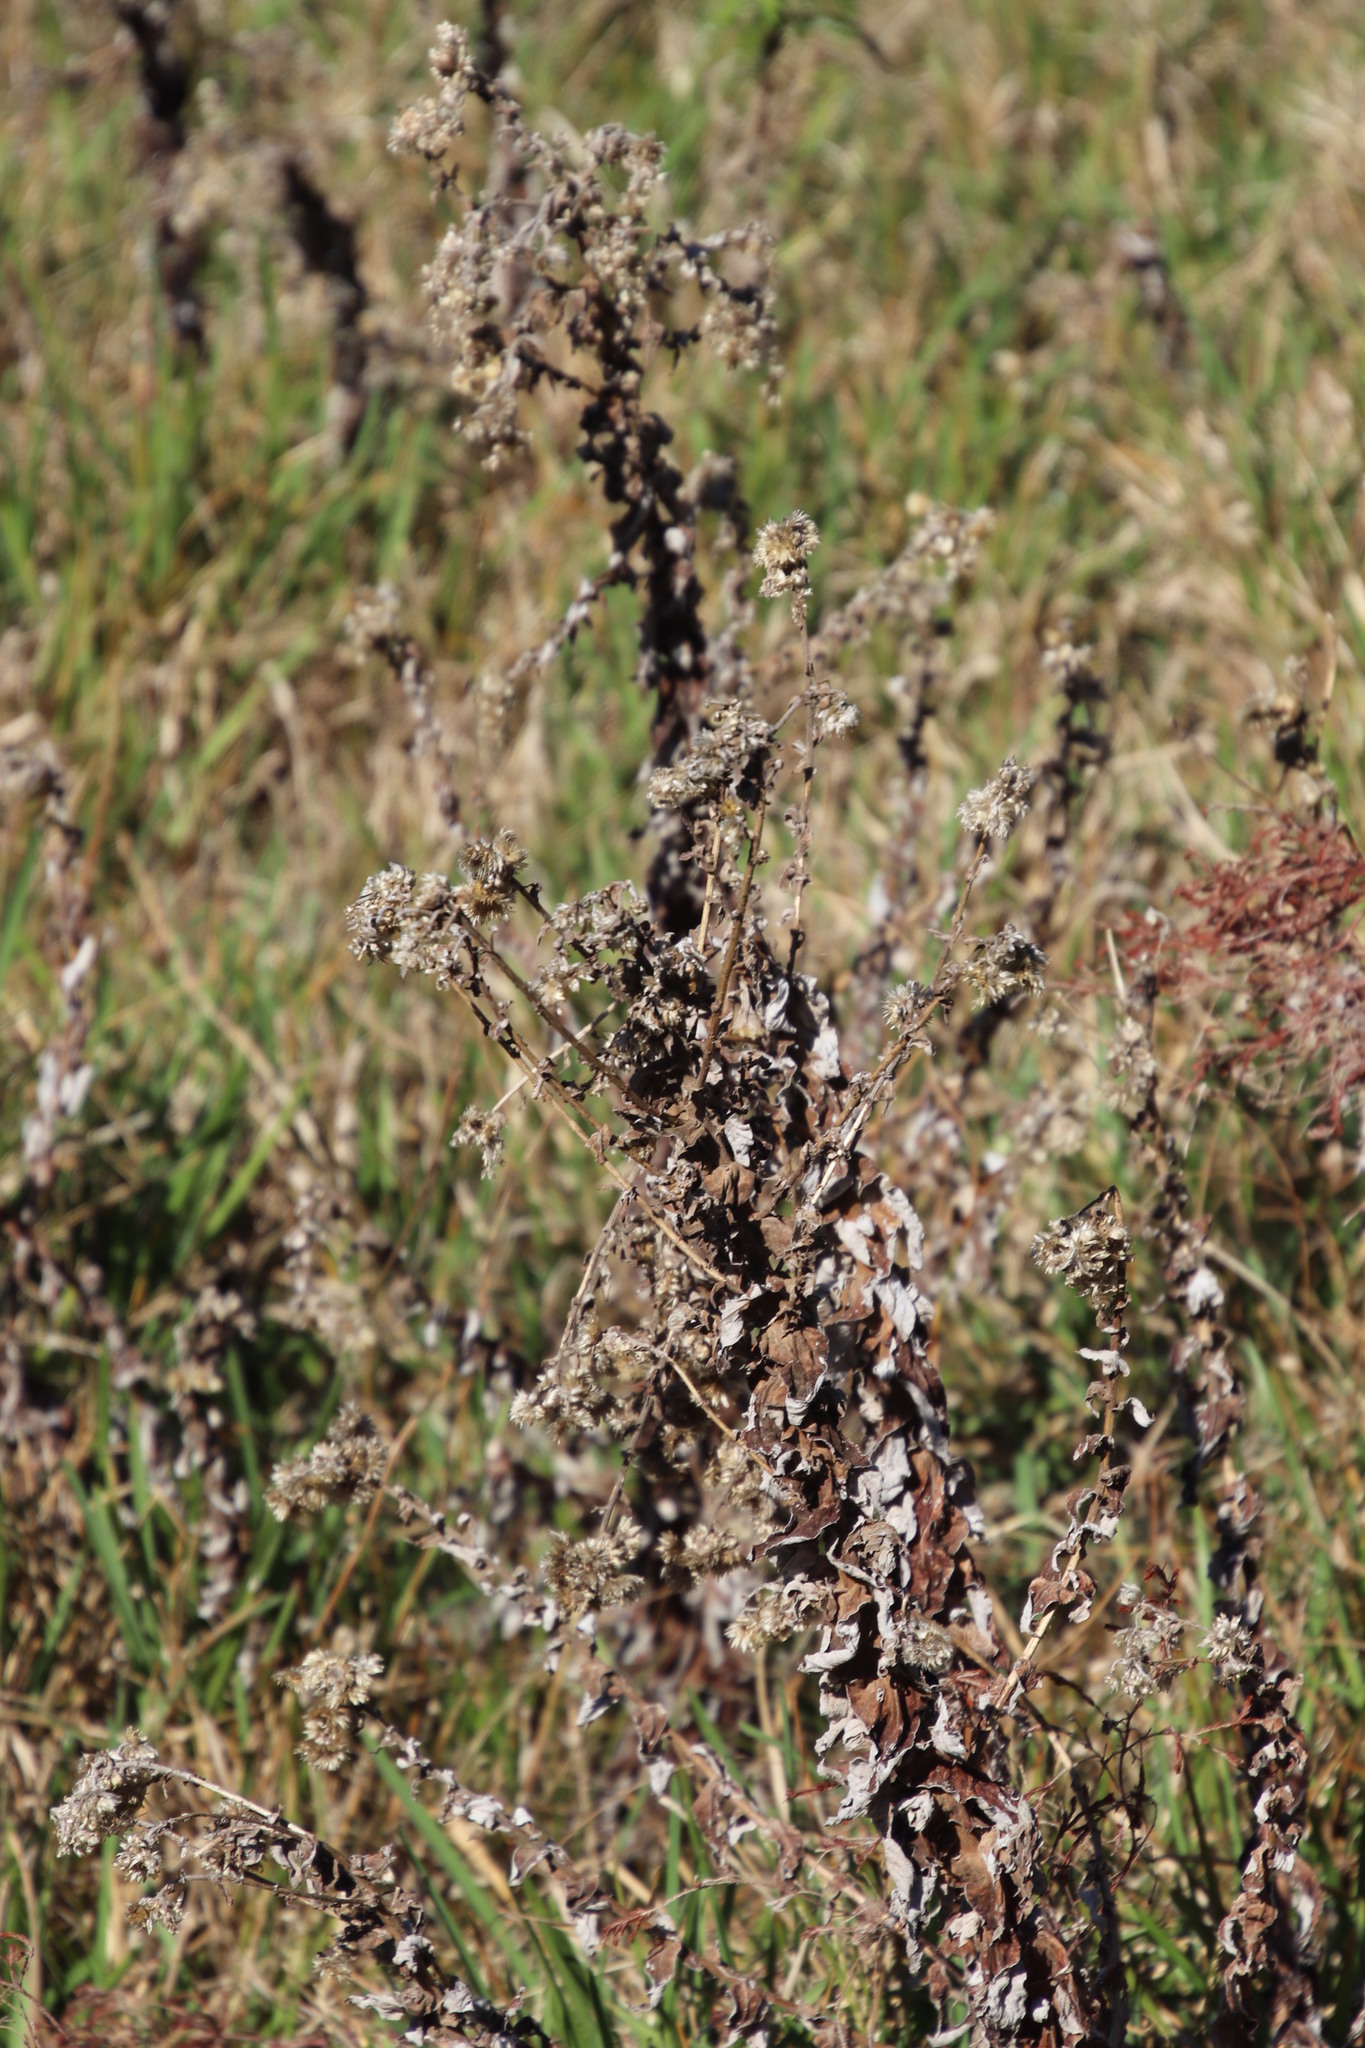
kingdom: Plantae
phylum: Tracheophyta
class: Magnoliopsida
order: Asterales
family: Asteraceae
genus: Helichrysum
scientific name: Helichrysum foetidum
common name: Stinking everlasting
